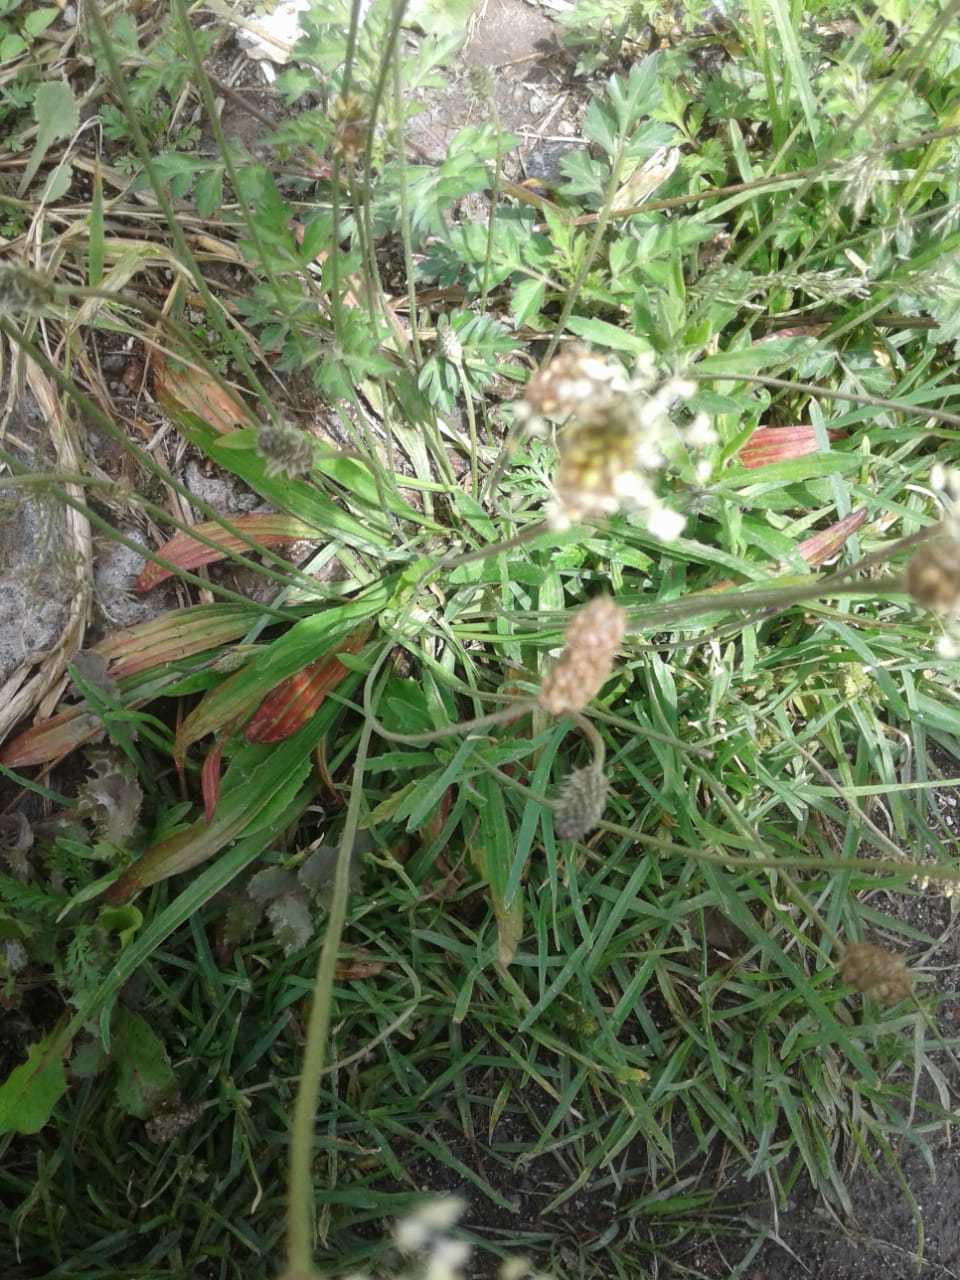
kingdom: Plantae
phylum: Tracheophyta
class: Magnoliopsida
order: Lamiales
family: Plantaginaceae
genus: Plantago
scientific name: Plantago lanceolata
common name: Ribwort plantain
